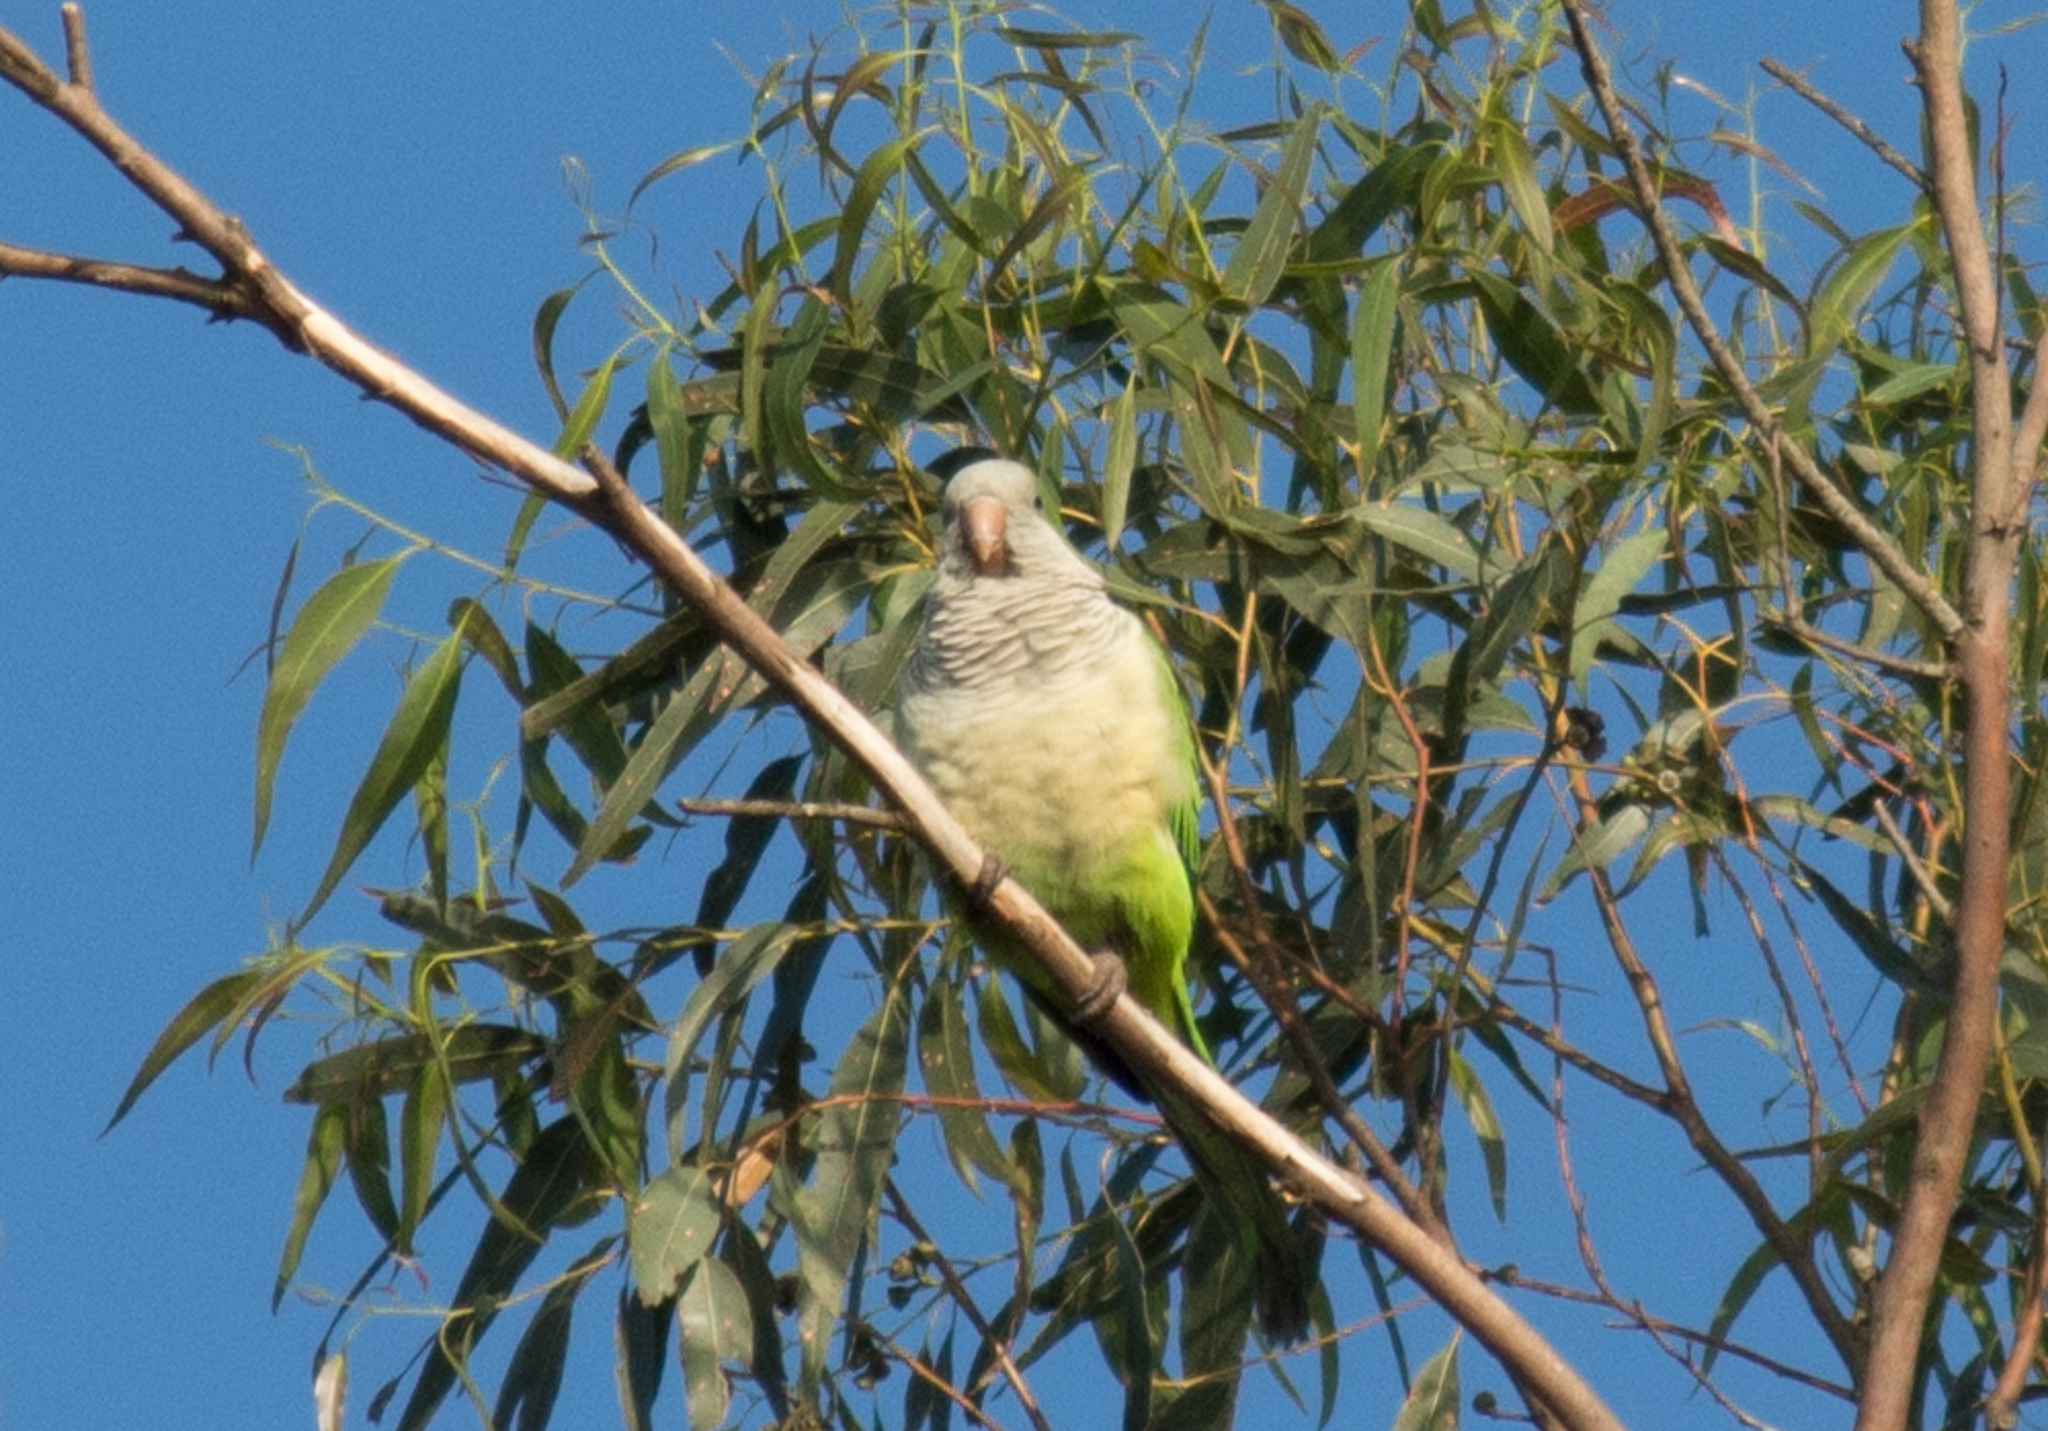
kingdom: Animalia
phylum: Chordata
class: Aves
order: Psittaciformes
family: Psittacidae
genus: Myiopsitta
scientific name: Myiopsitta monachus
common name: Monk parakeet
